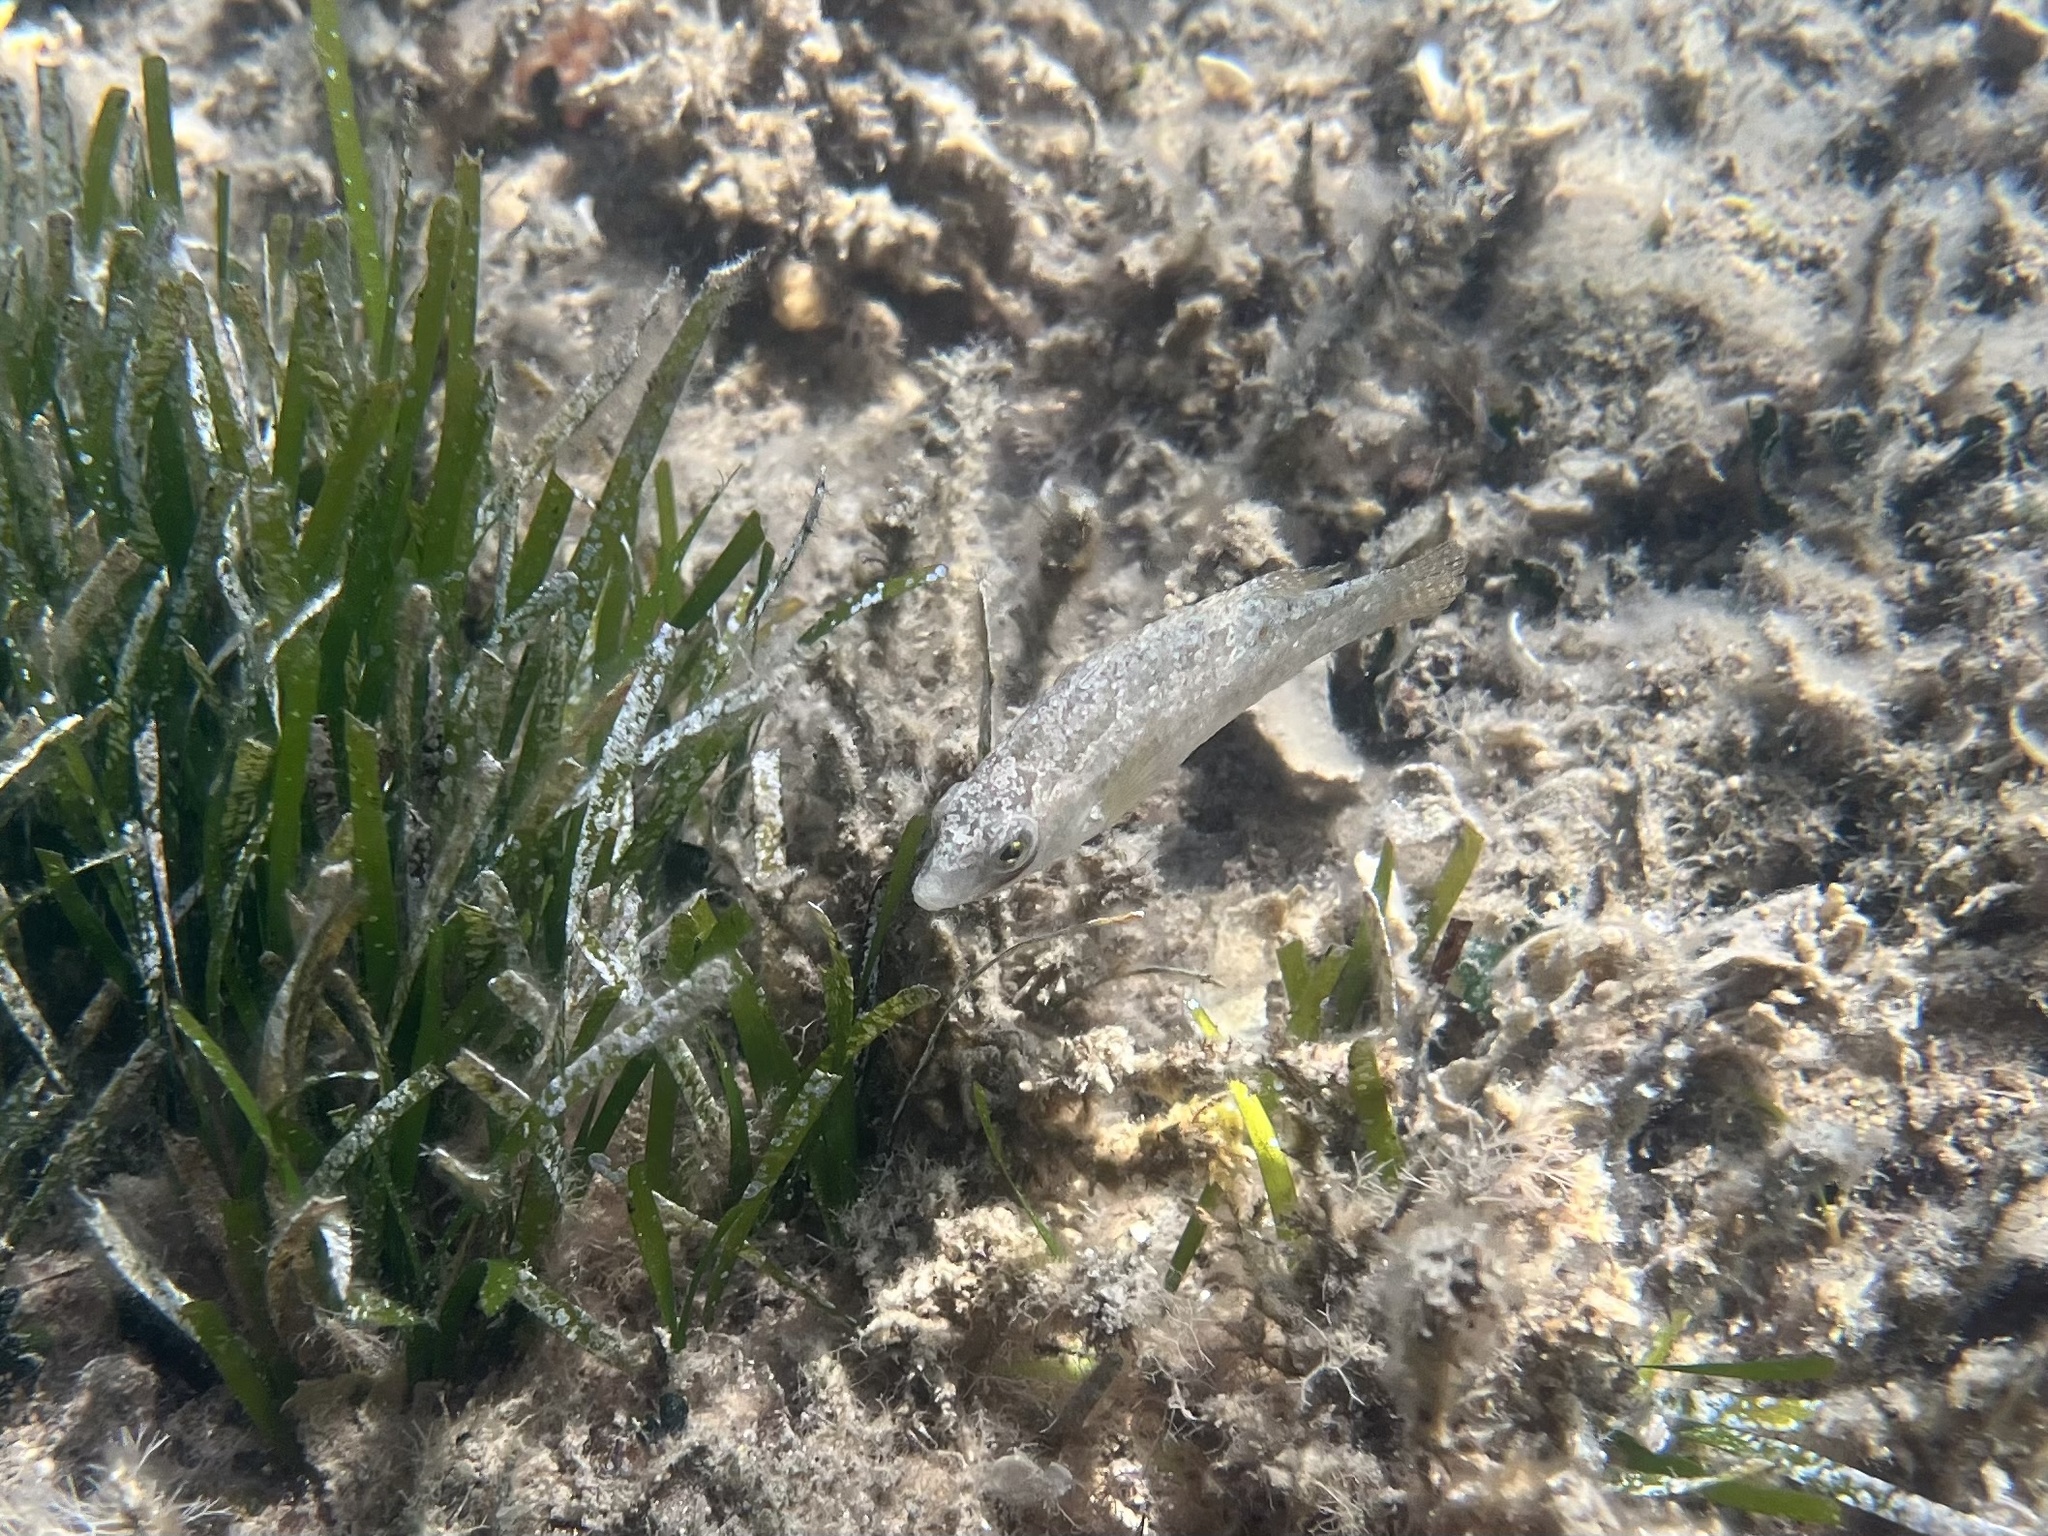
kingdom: Animalia
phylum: Chordata
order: Perciformes
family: Labridae
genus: Symphodus
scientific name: Symphodus cinereus
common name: Grey wrasse
